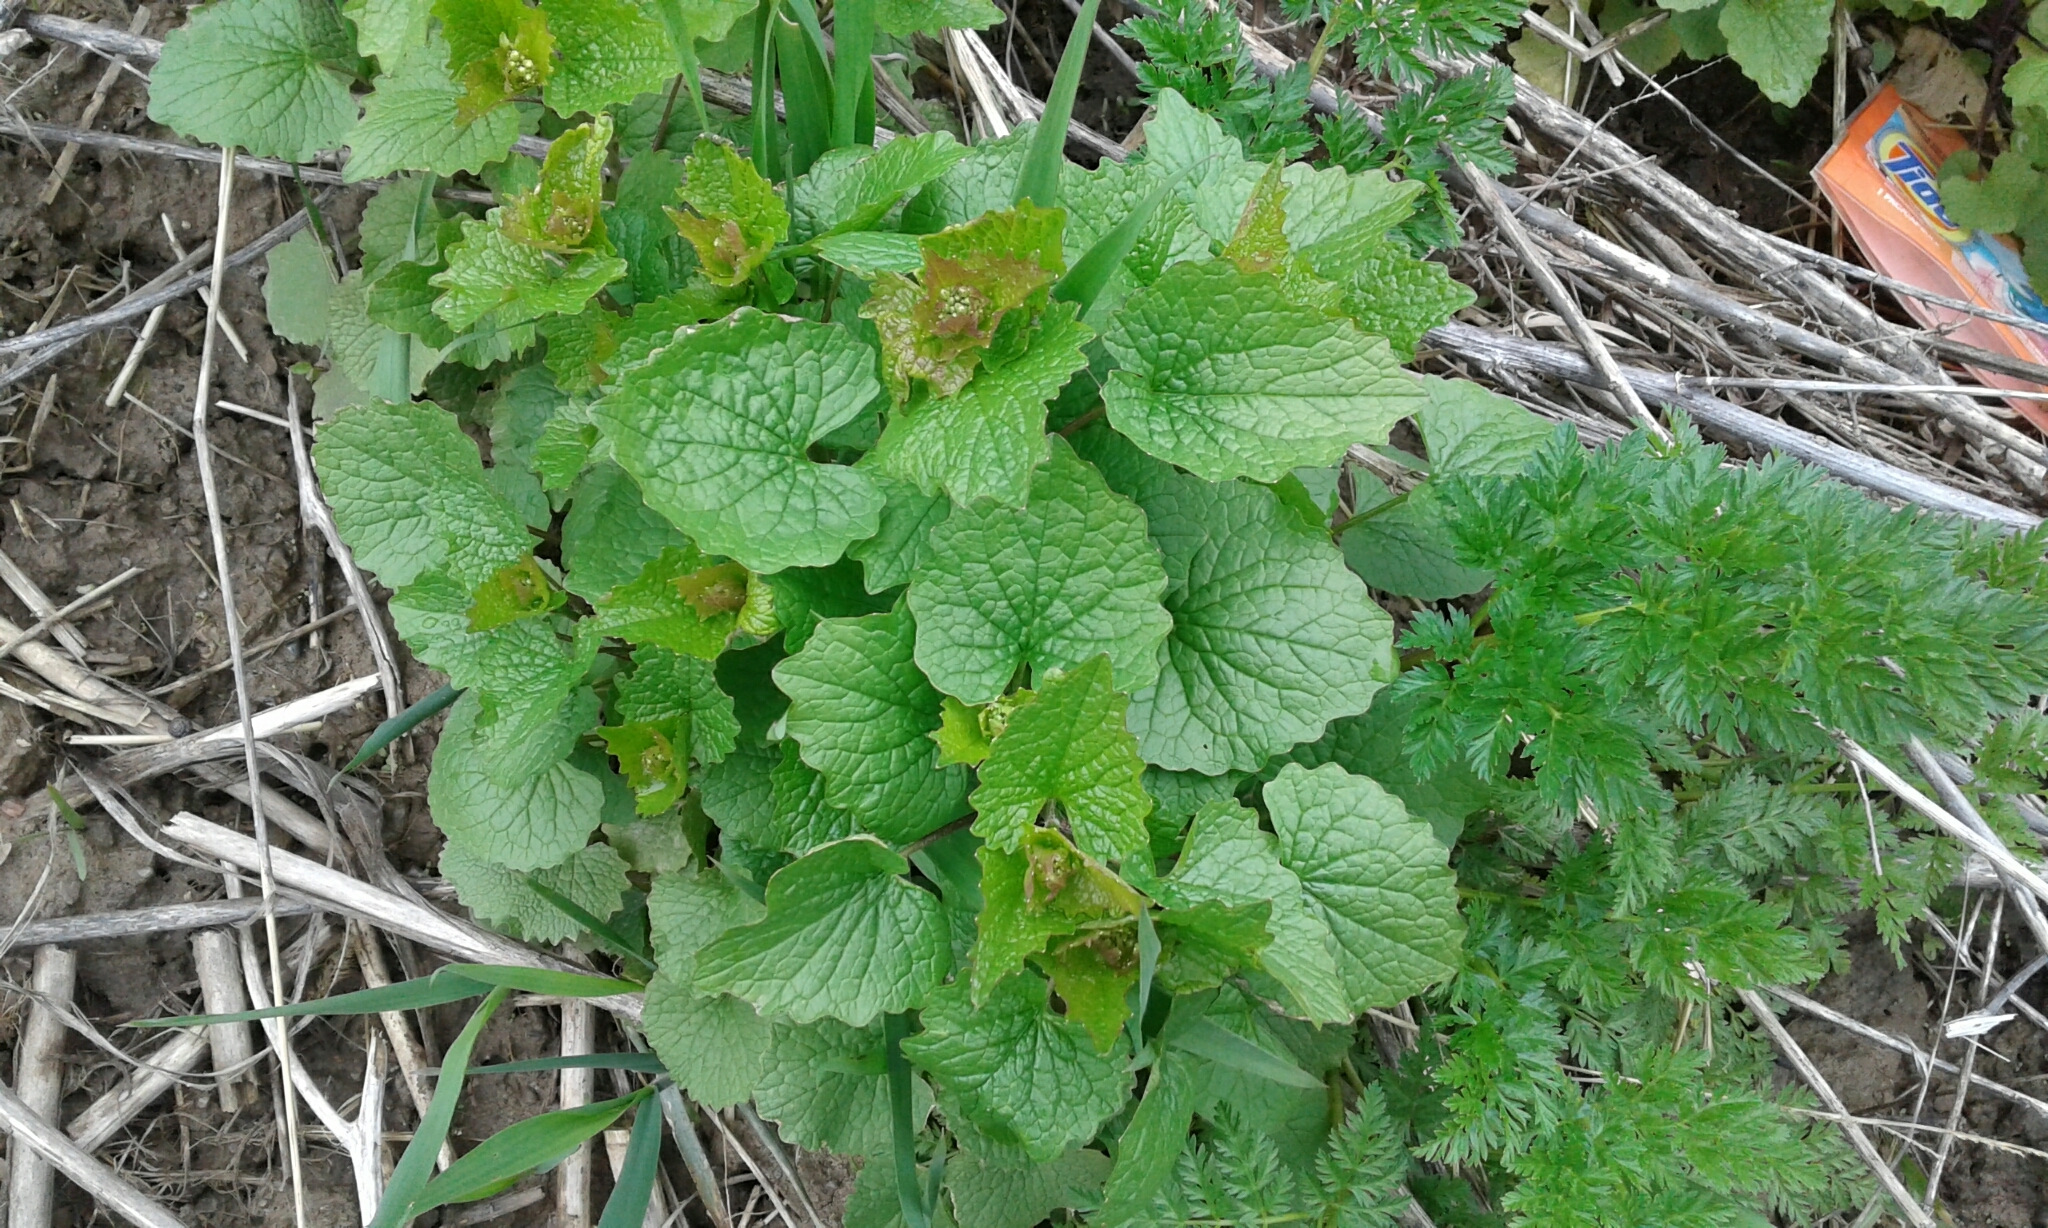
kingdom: Plantae
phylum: Tracheophyta
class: Magnoliopsida
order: Brassicales
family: Brassicaceae
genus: Alliaria
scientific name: Alliaria petiolata
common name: Garlic mustard
